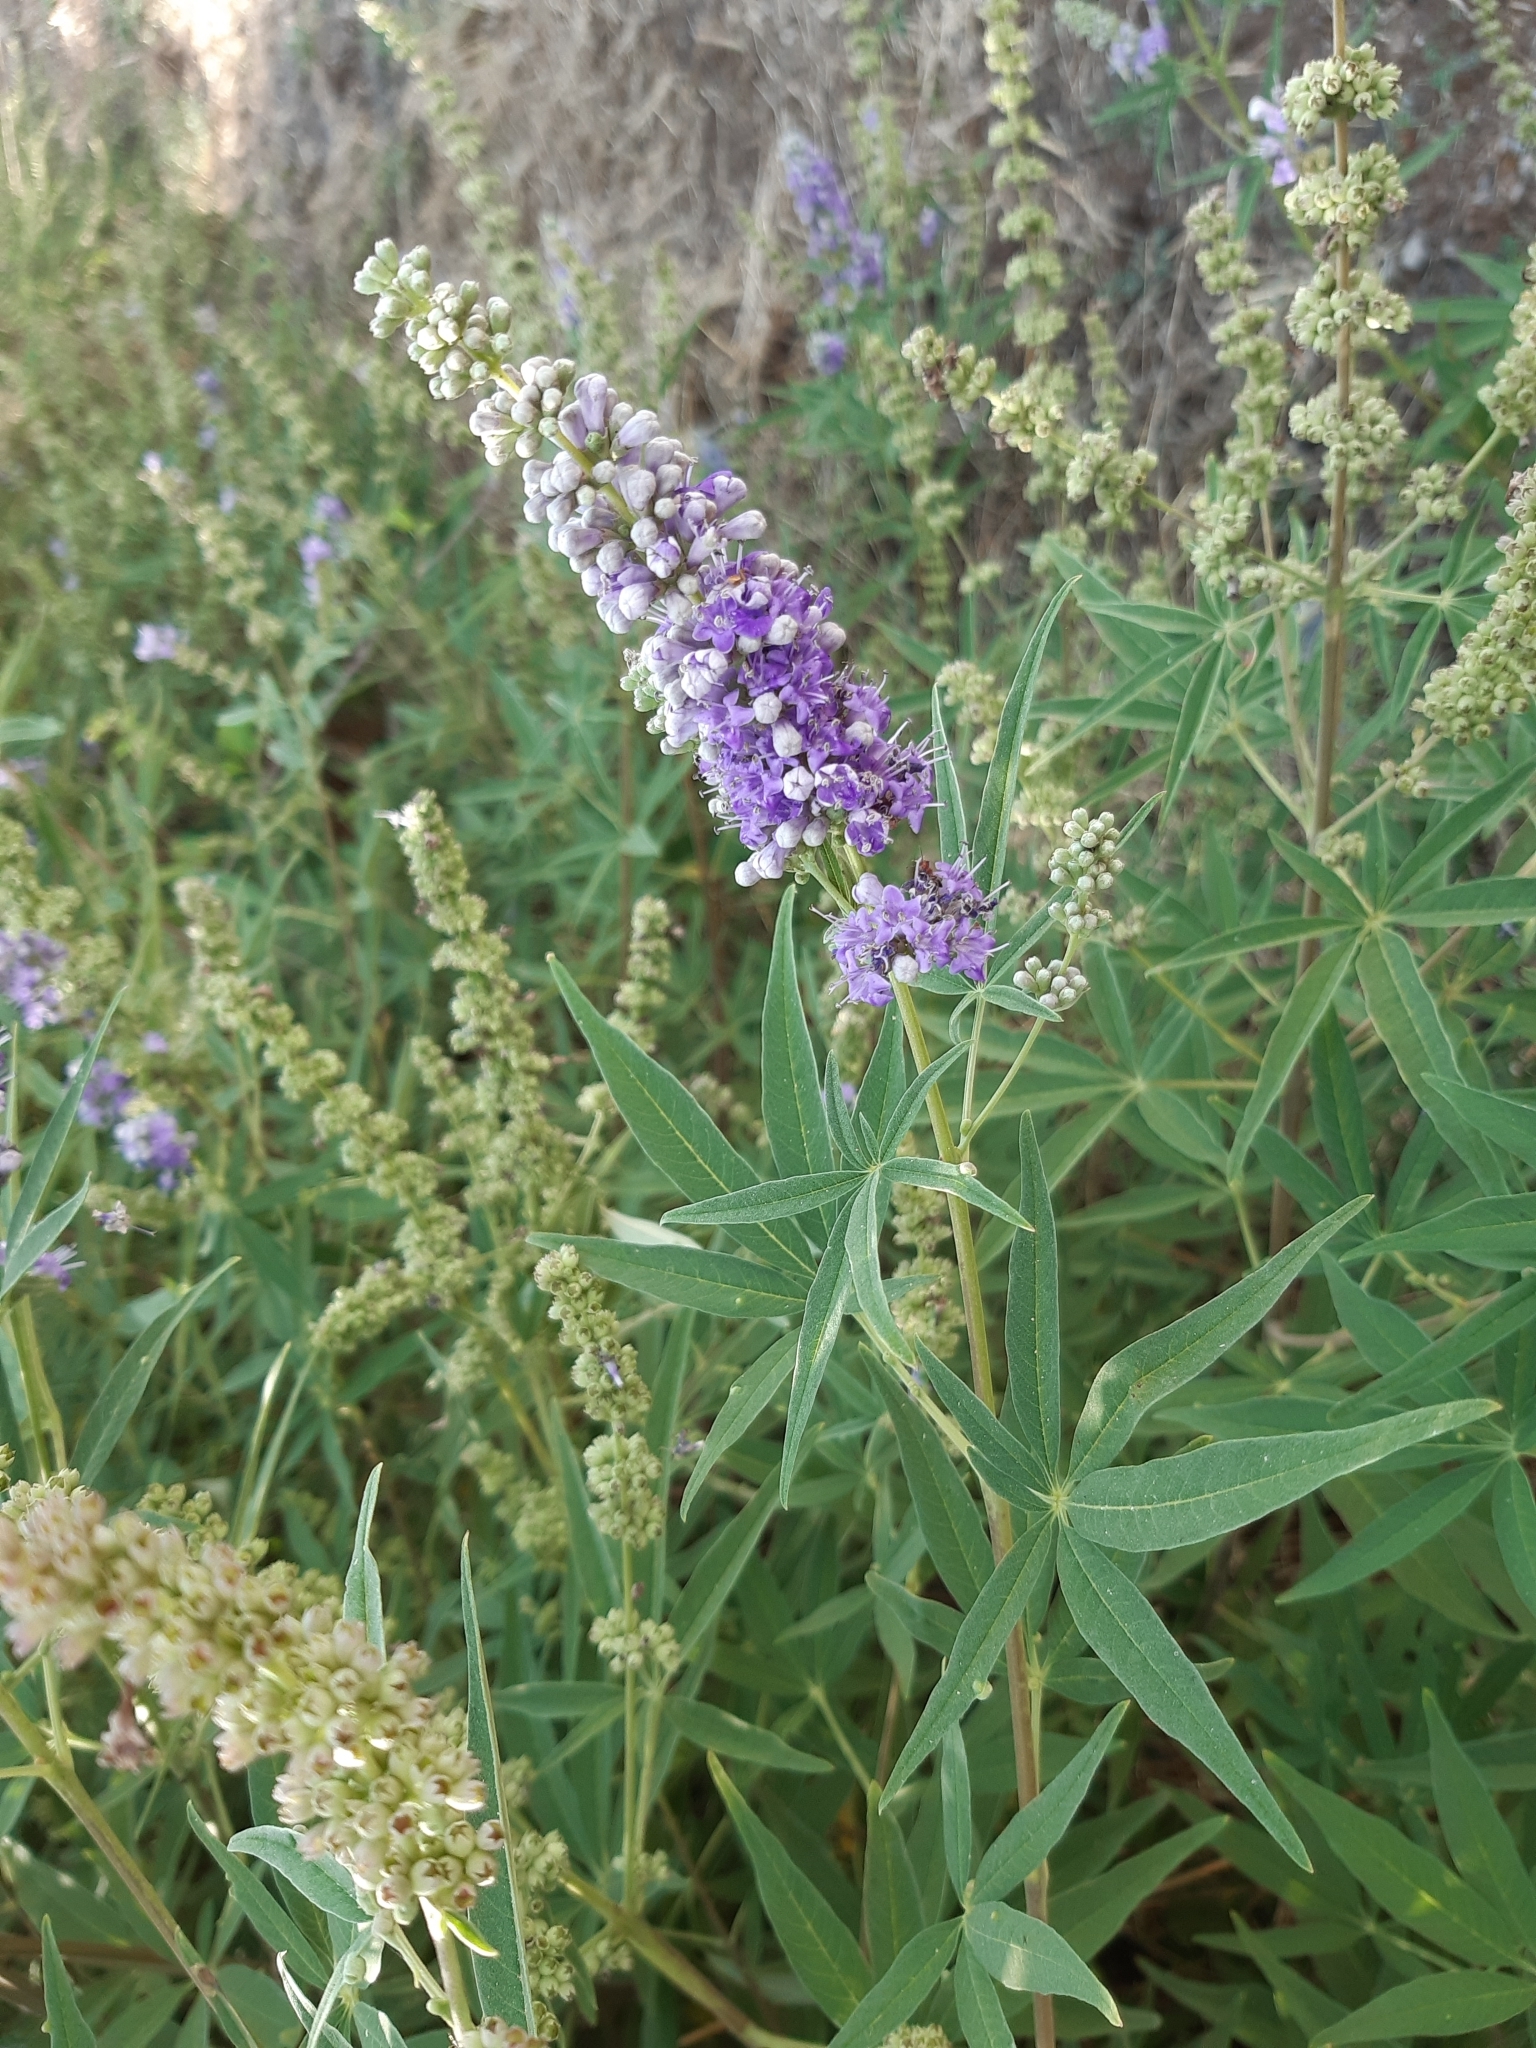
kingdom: Plantae
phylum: Tracheophyta
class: Magnoliopsida
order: Lamiales
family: Lamiaceae
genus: Vitex
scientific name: Vitex agnus-castus
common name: Chasteberry
